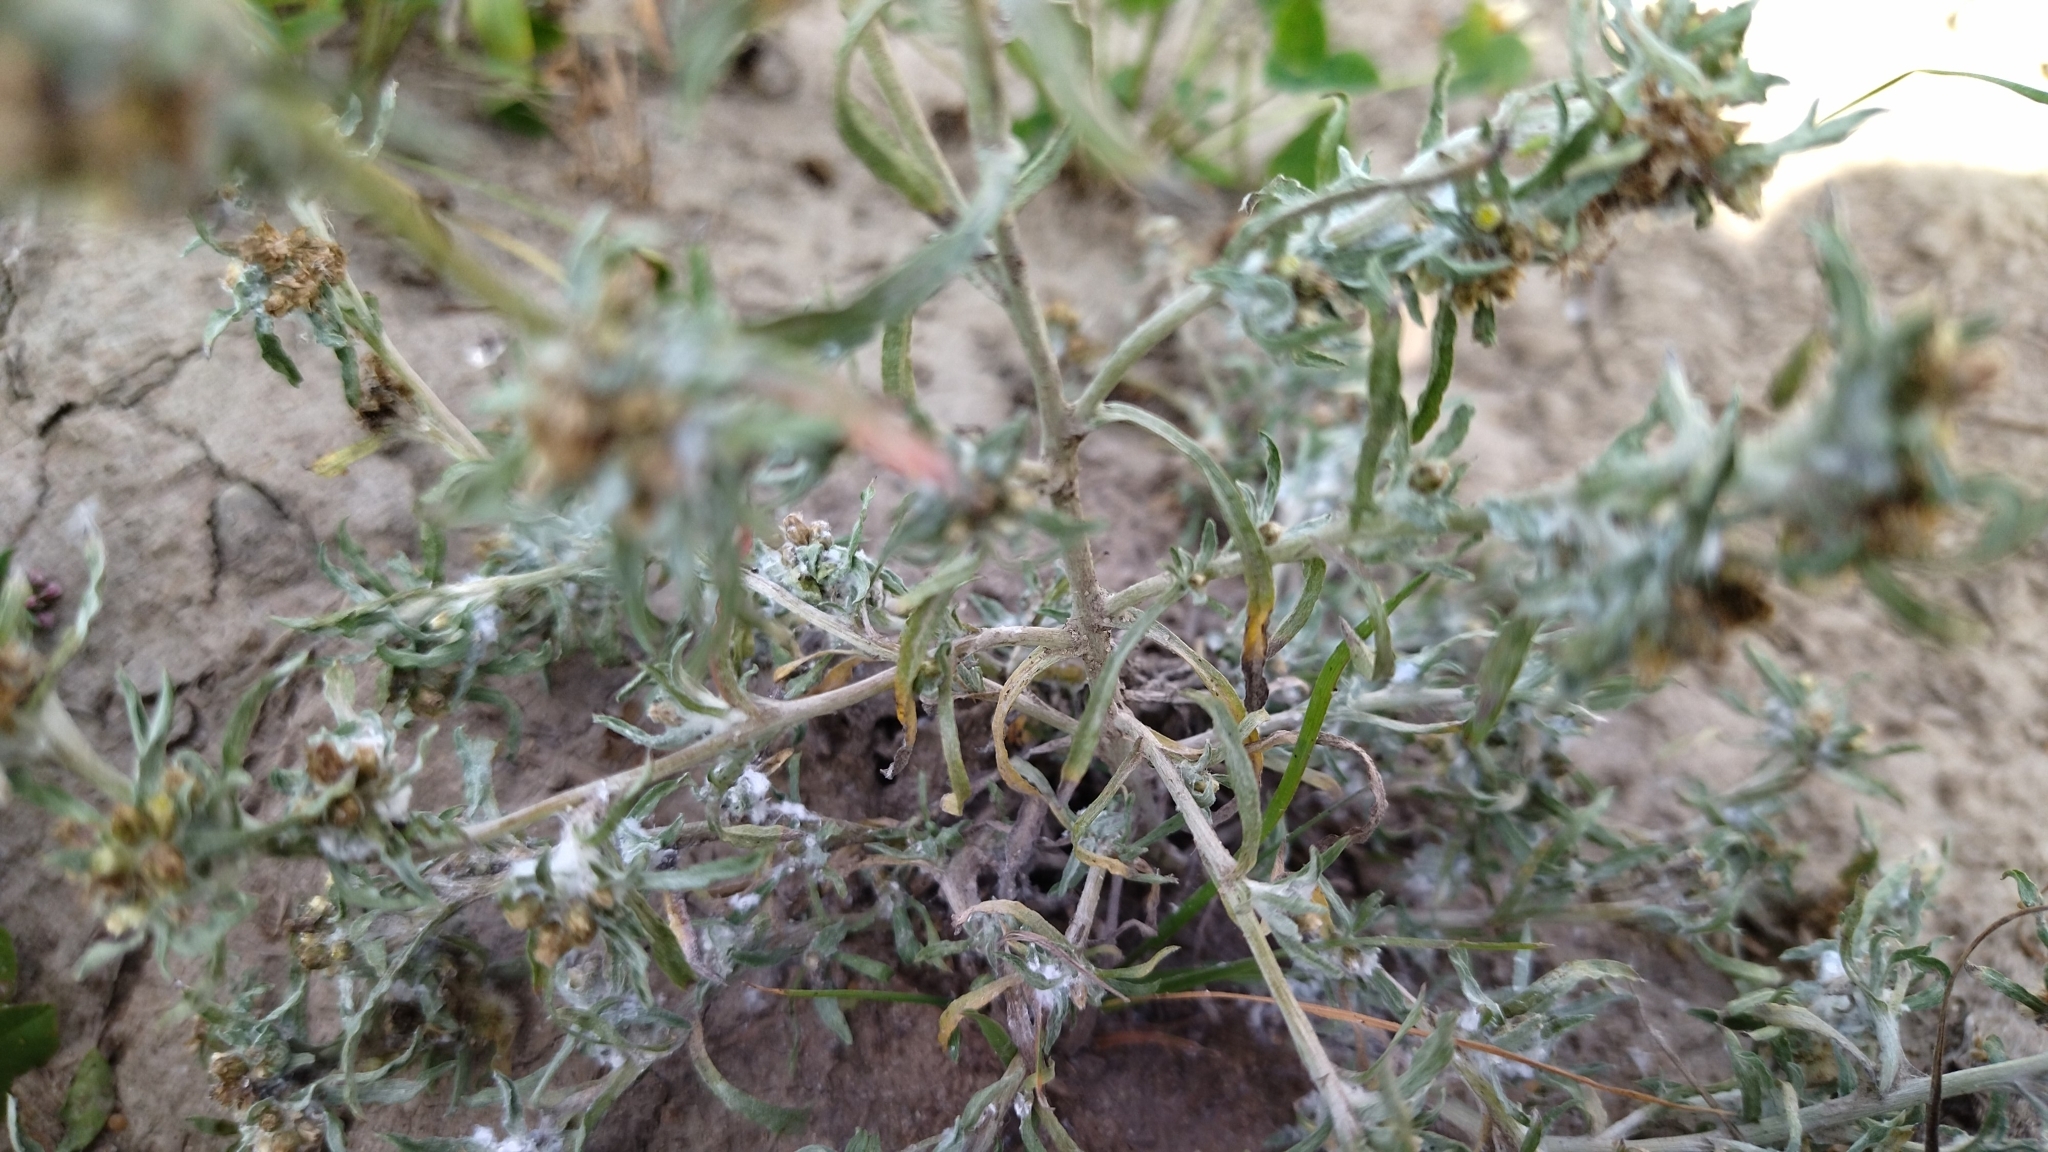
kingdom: Plantae
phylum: Tracheophyta
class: Magnoliopsida
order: Asterales
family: Asteraceae
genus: Gnaphalium
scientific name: Gnaphalium uliginosum
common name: Marsh cudweed
